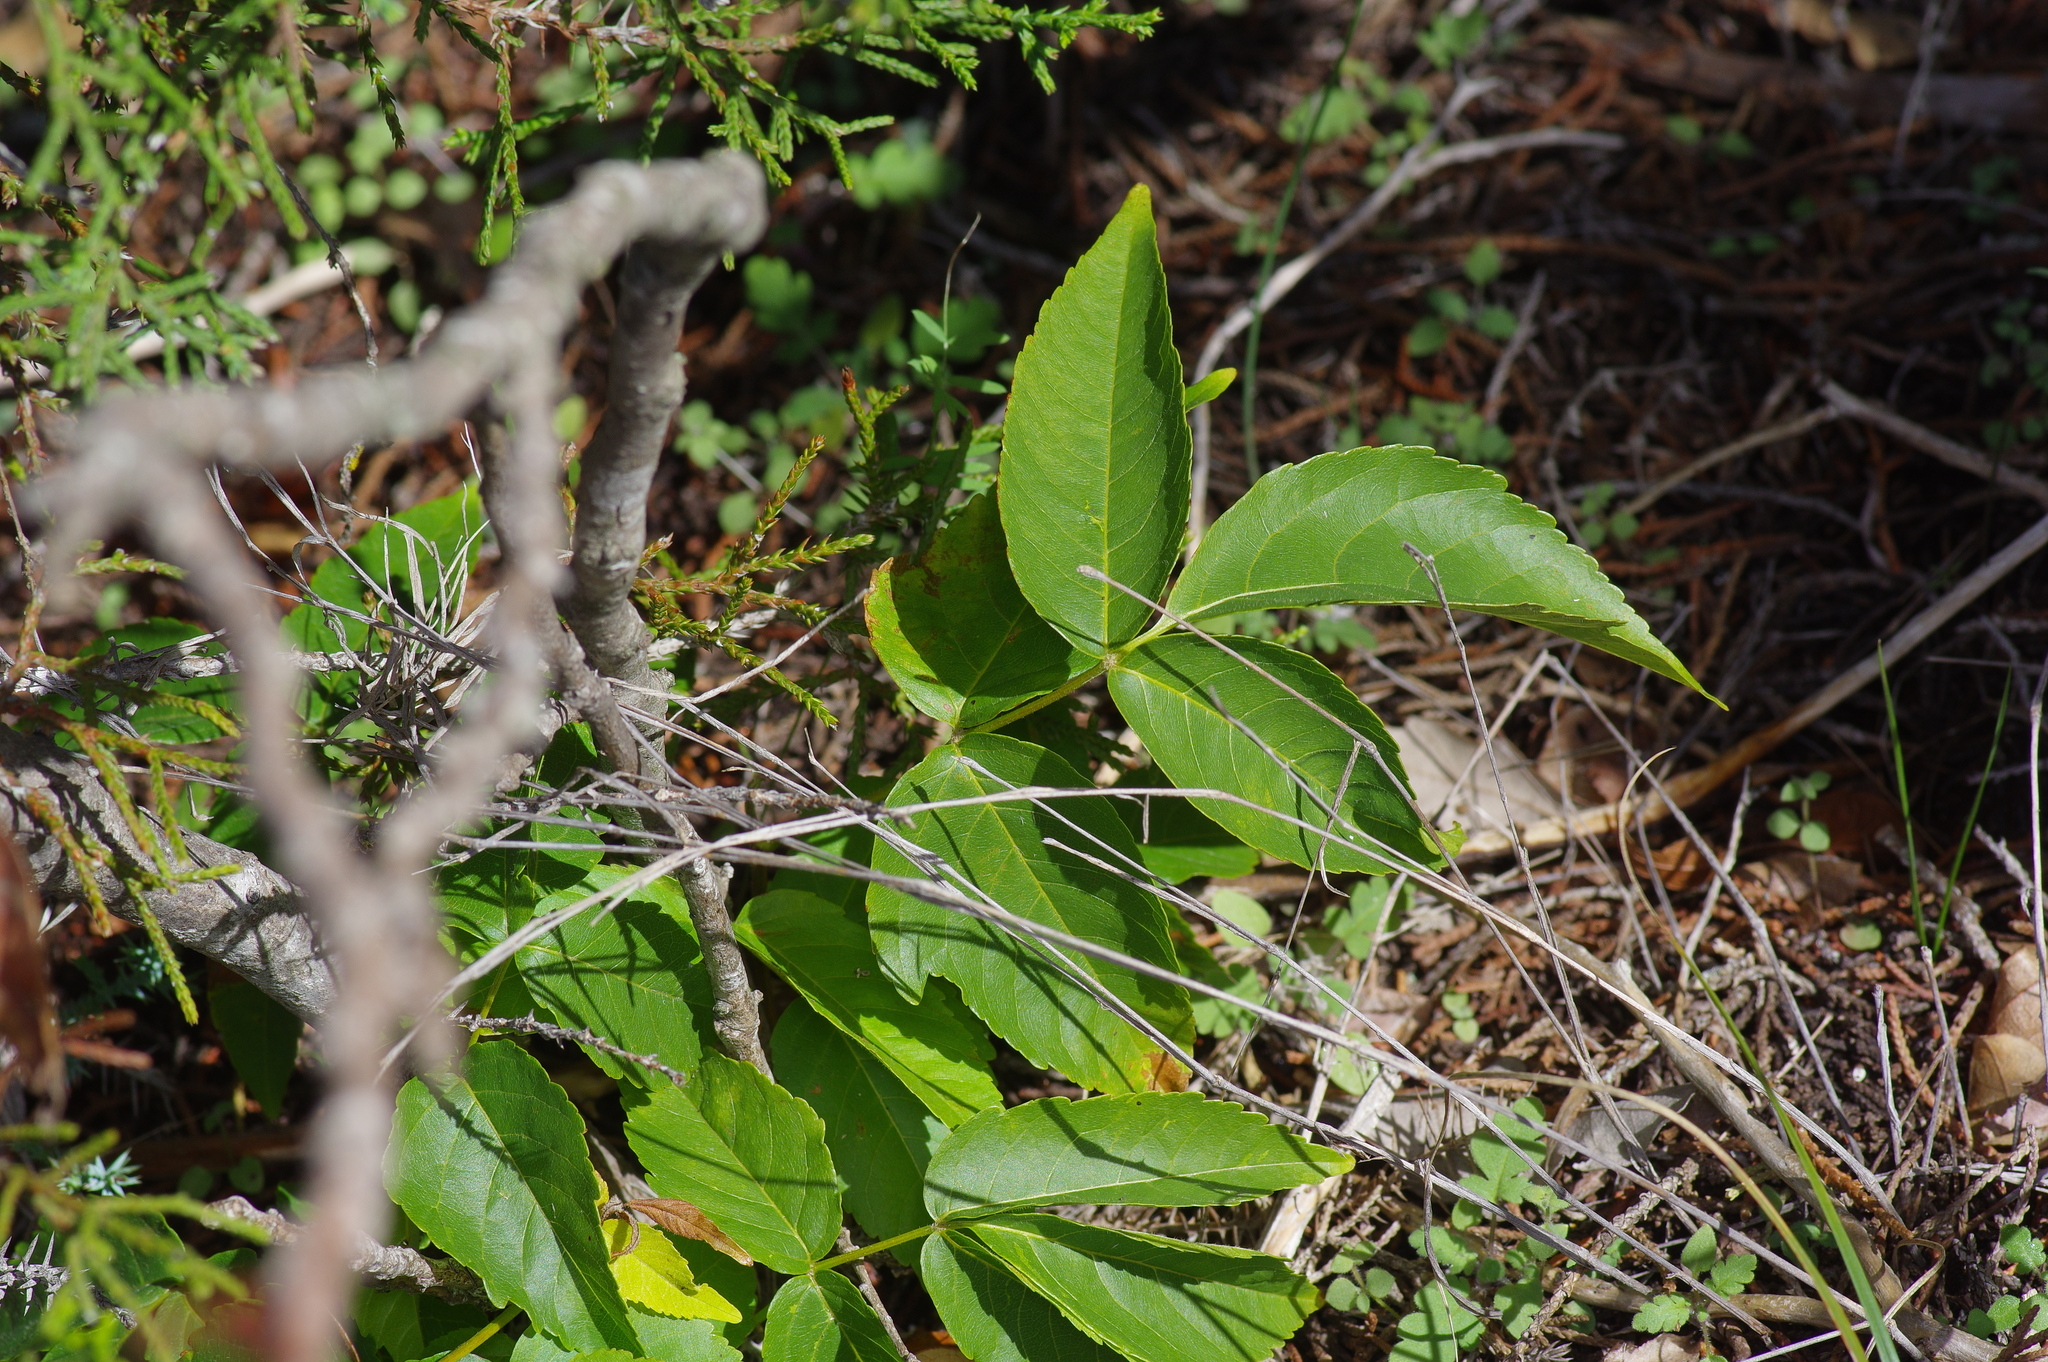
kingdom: Plantae
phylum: Tracheophyta
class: Magnoliopsida
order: Sapindales
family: Sapindaceae
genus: Ungnadia
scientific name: Ungnadia speciosa
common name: Texas-buckeye
